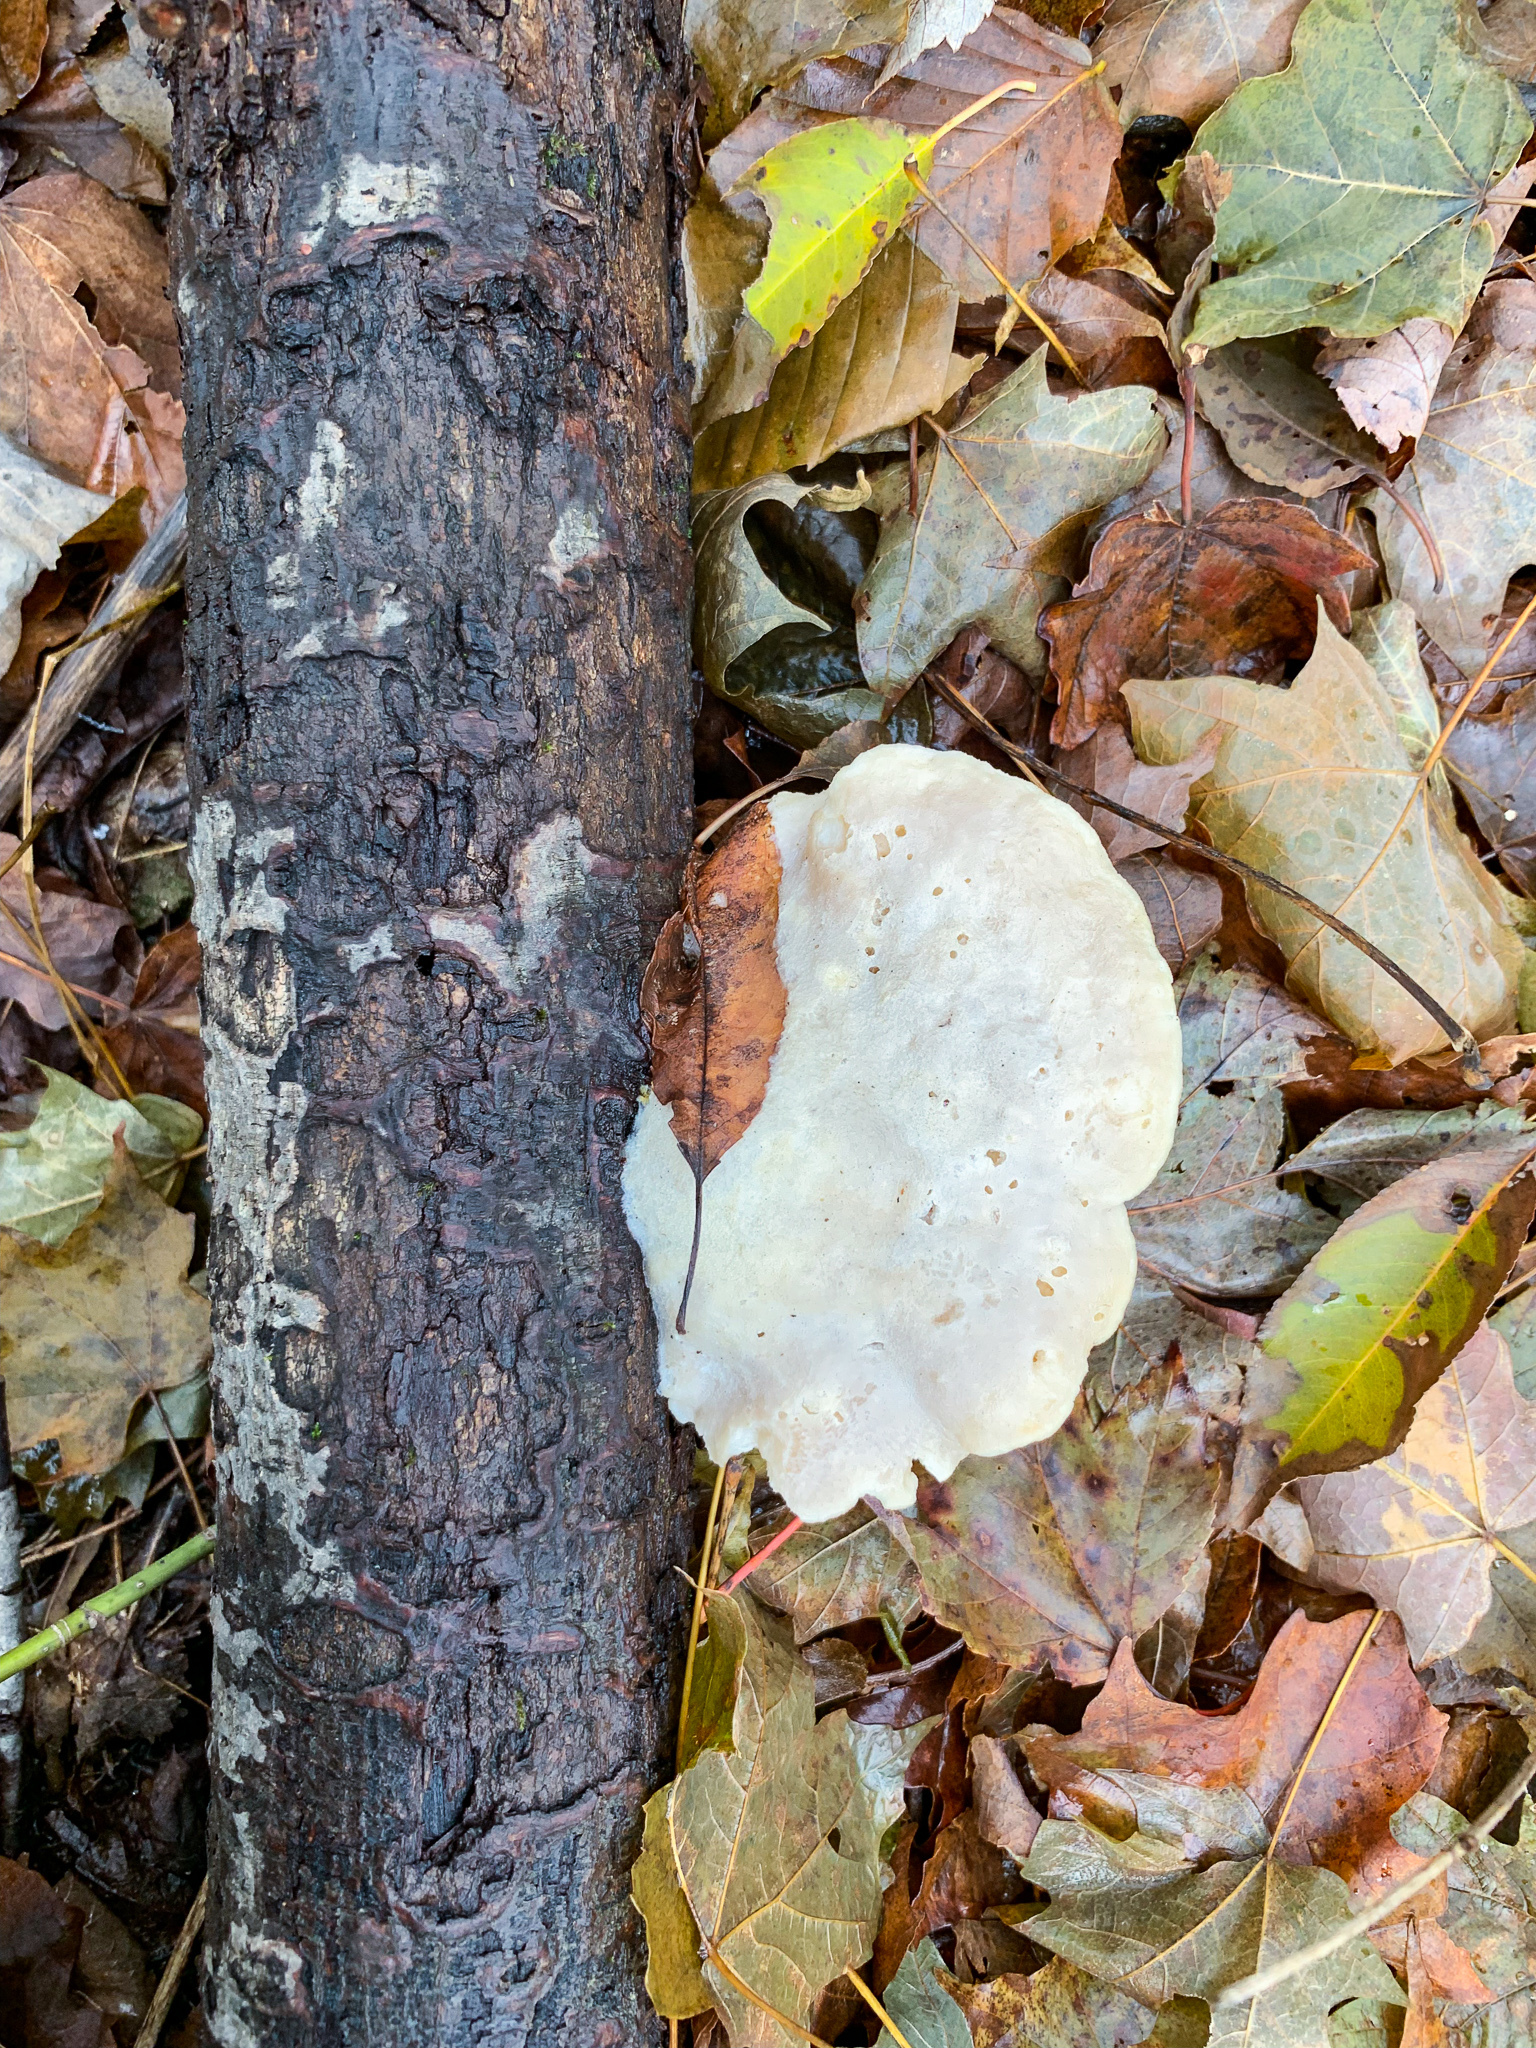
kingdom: Fungi
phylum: Basidiomycota
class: Agaricomycetes
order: Polyporales
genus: Fuscopostia
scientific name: Fuscopostia fragilis
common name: Brown-staining cheese polypore
